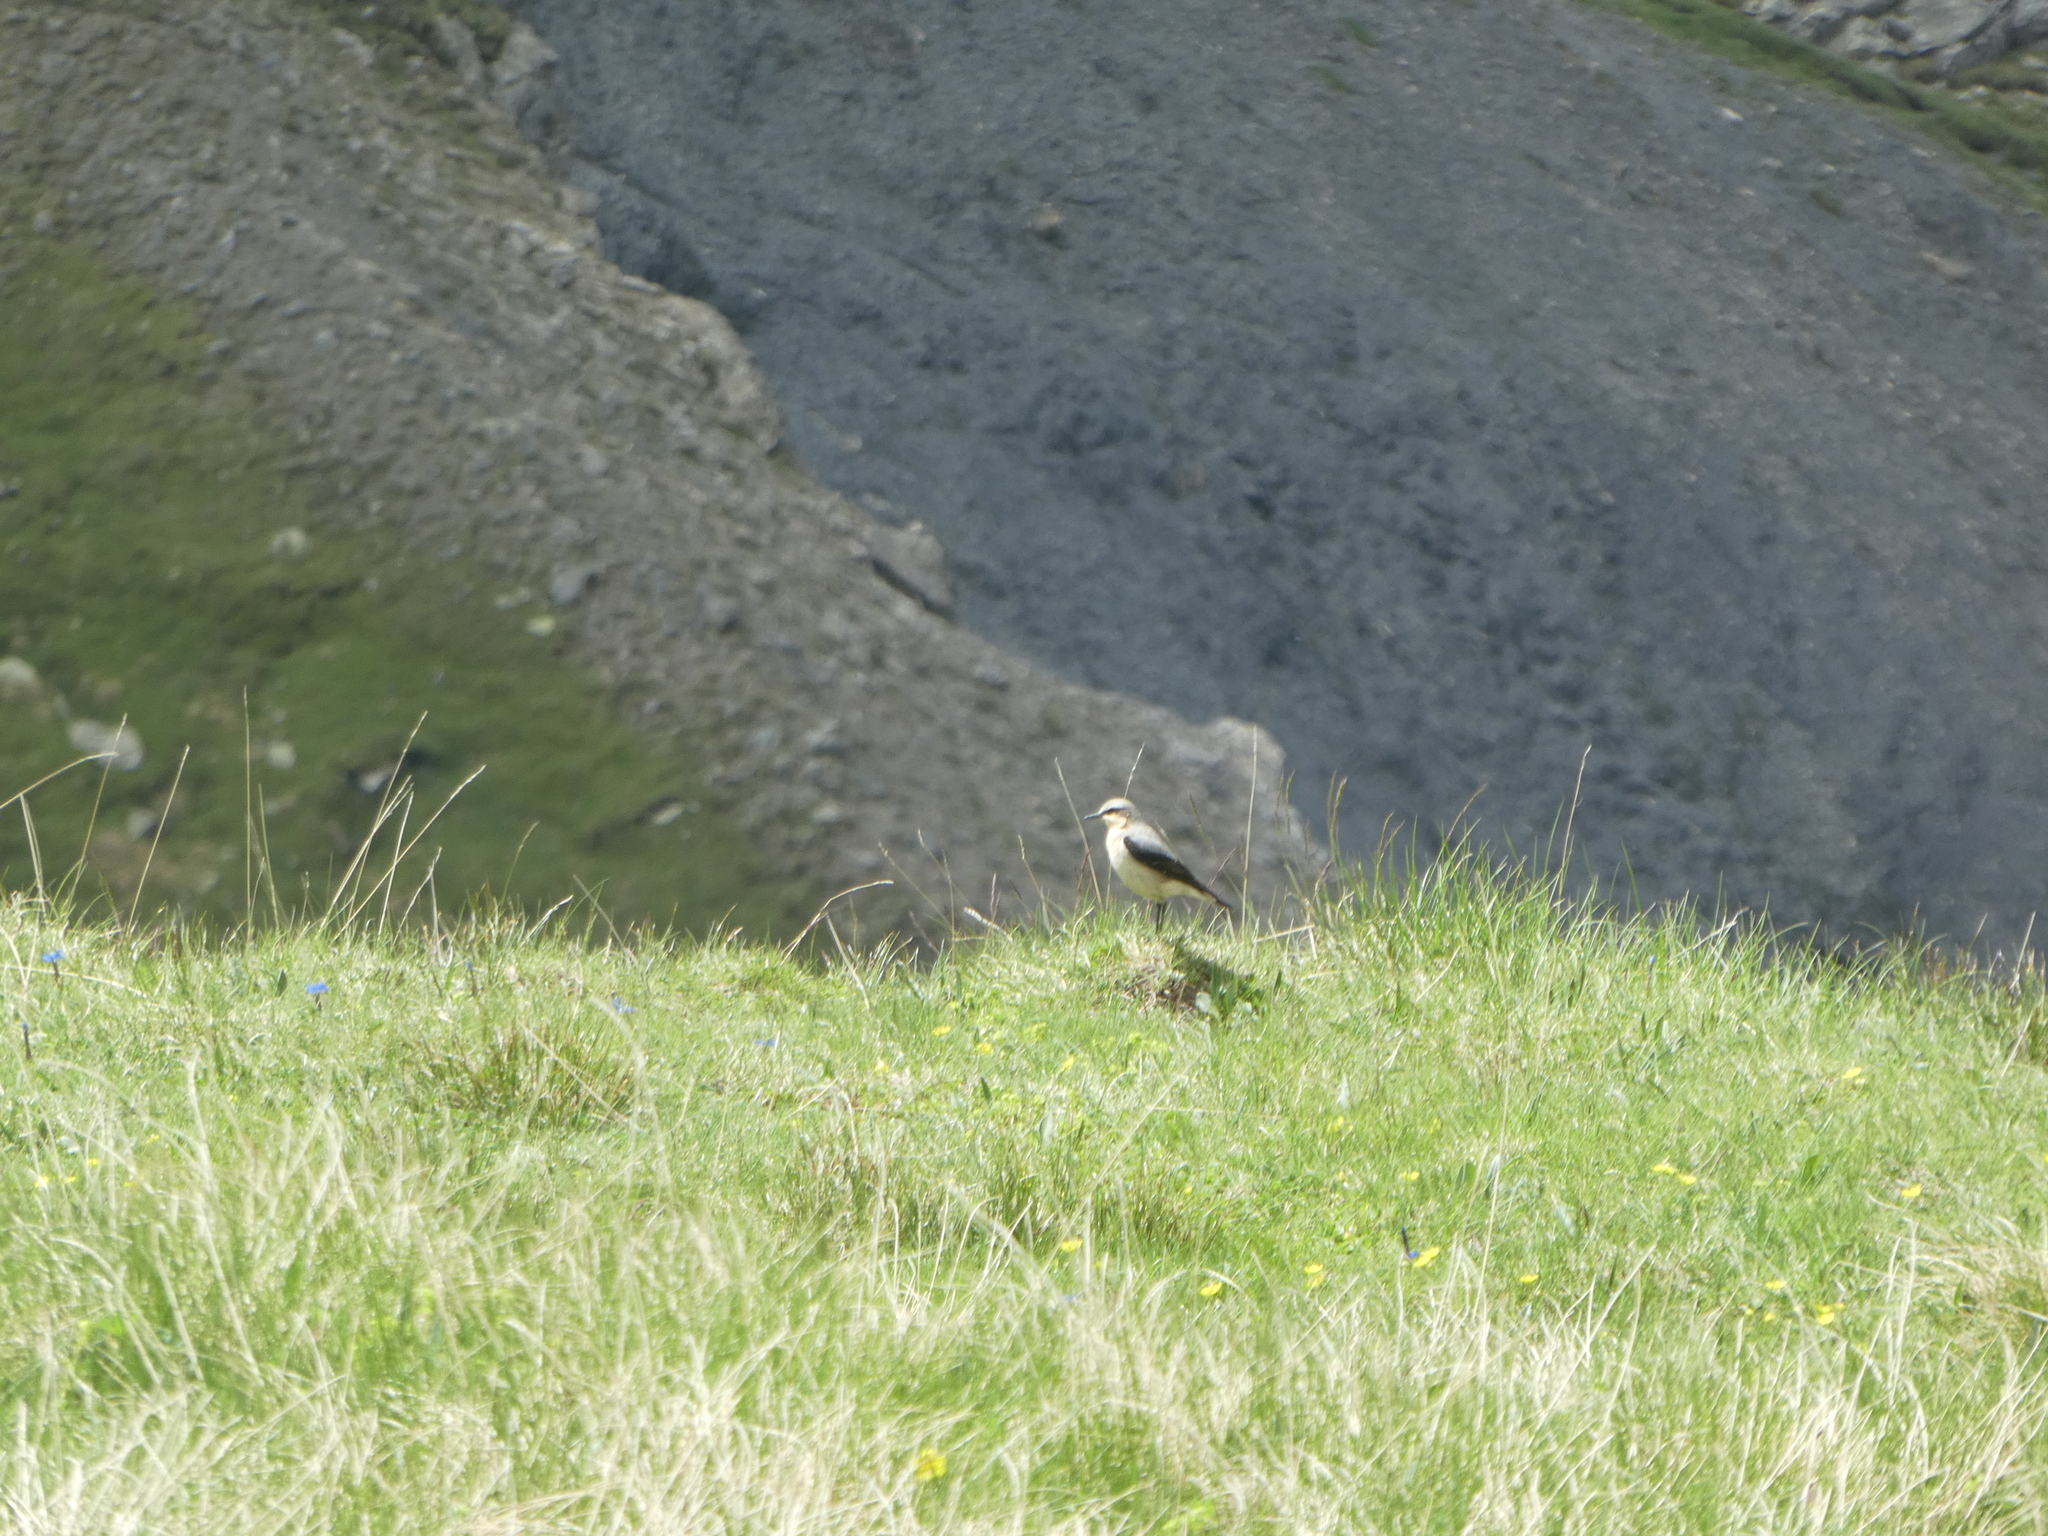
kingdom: Animalia
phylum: Chordata
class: Aves
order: Passeriformes
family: Muscicapidae
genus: Oenanthe
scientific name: Oenanthe oenanthe
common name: Northern wheatear
